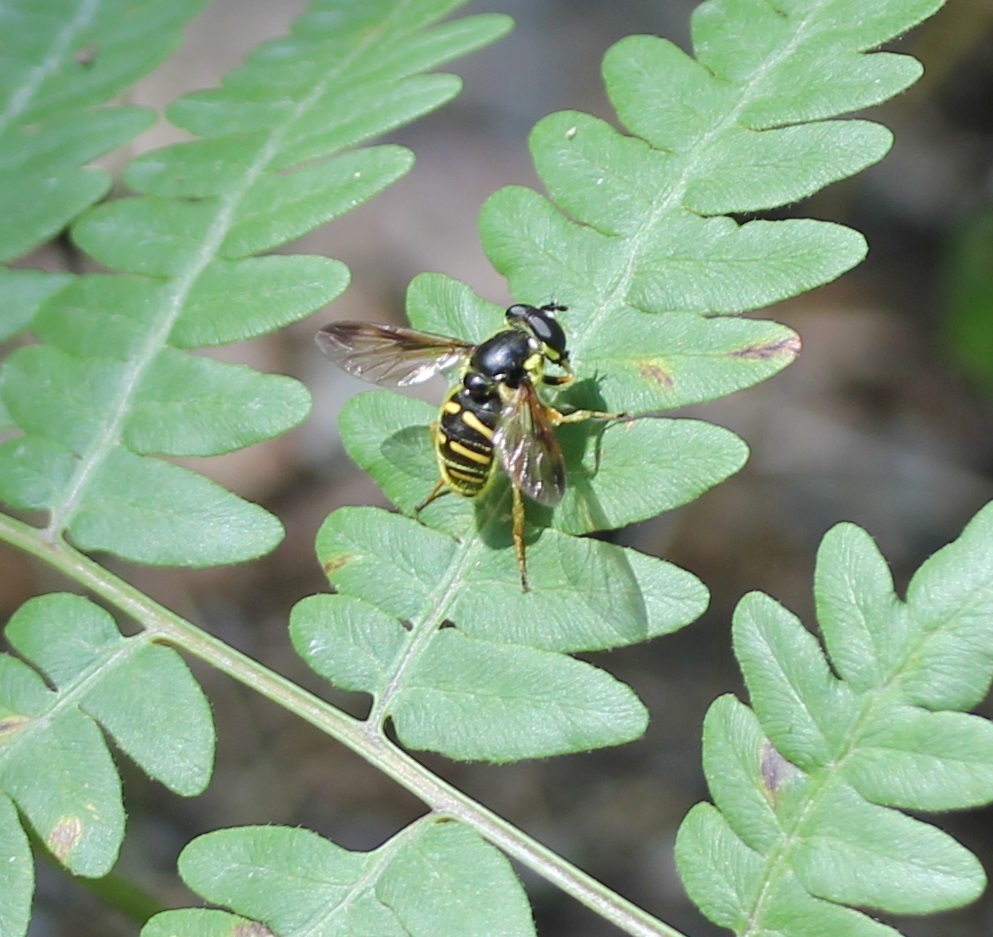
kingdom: Animalia
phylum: Arthropoda
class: Insecta
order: Diptera
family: Syrphidae
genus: Sericomyia
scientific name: Sericomyia chrysotoxoides
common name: Oblique-banded pond fly
